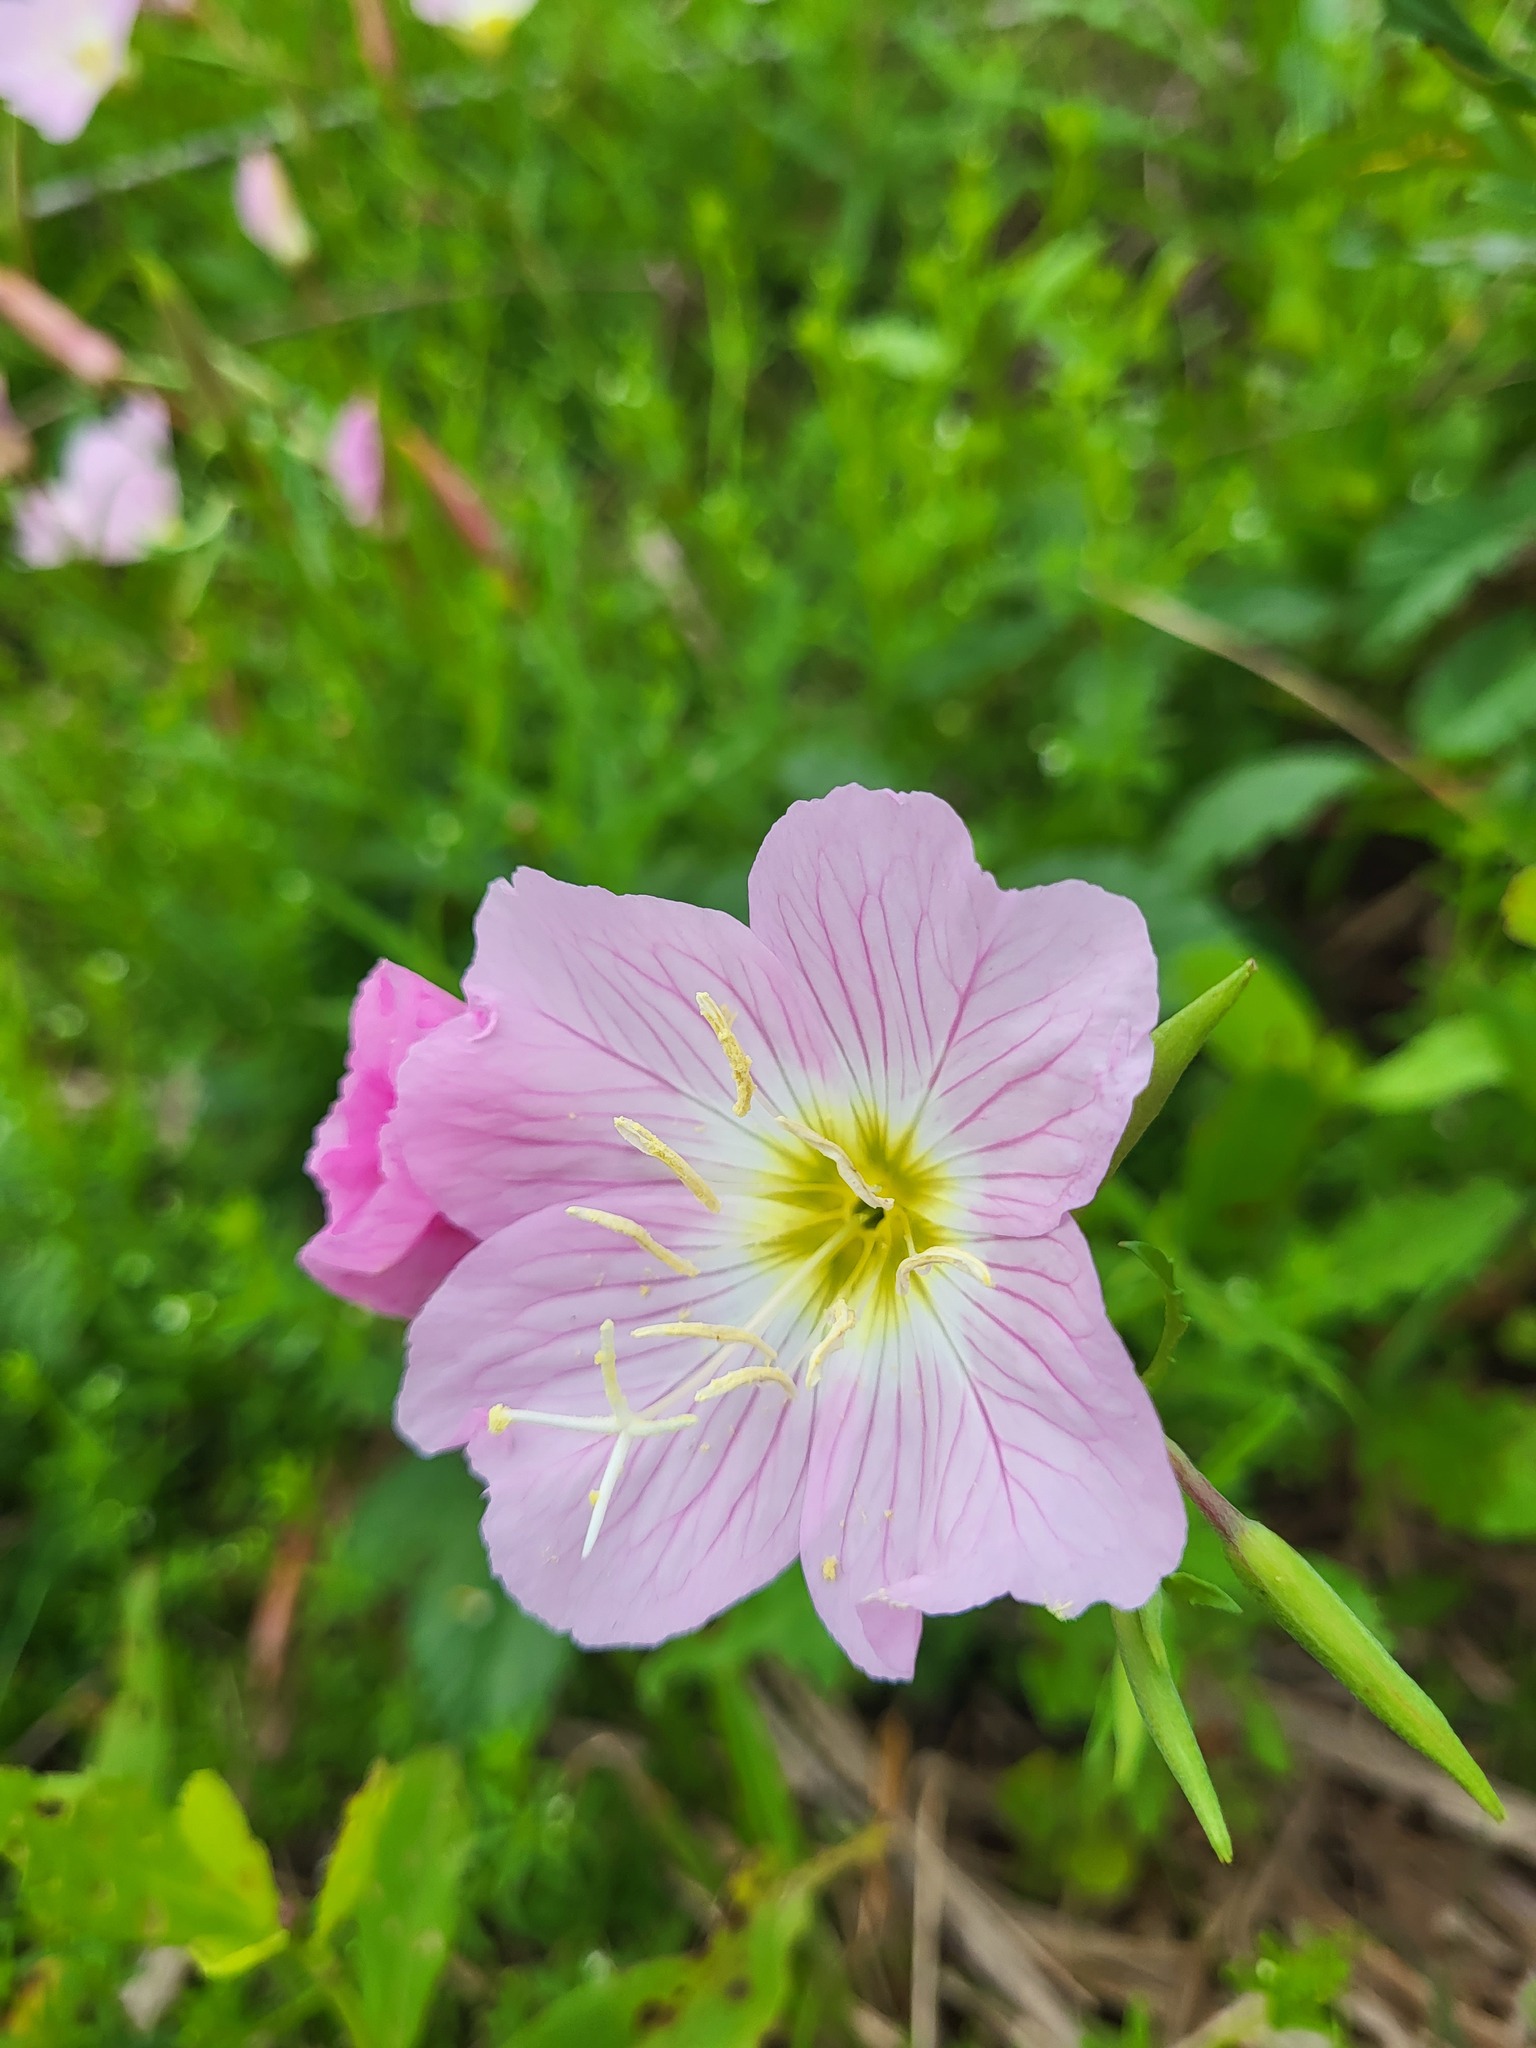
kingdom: Plantae
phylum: Tracheophyta
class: Magnoliopsida
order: Myrtales
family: Onagraceae
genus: Oenothera
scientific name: Oenothera speciosa
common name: White evening-primrose
